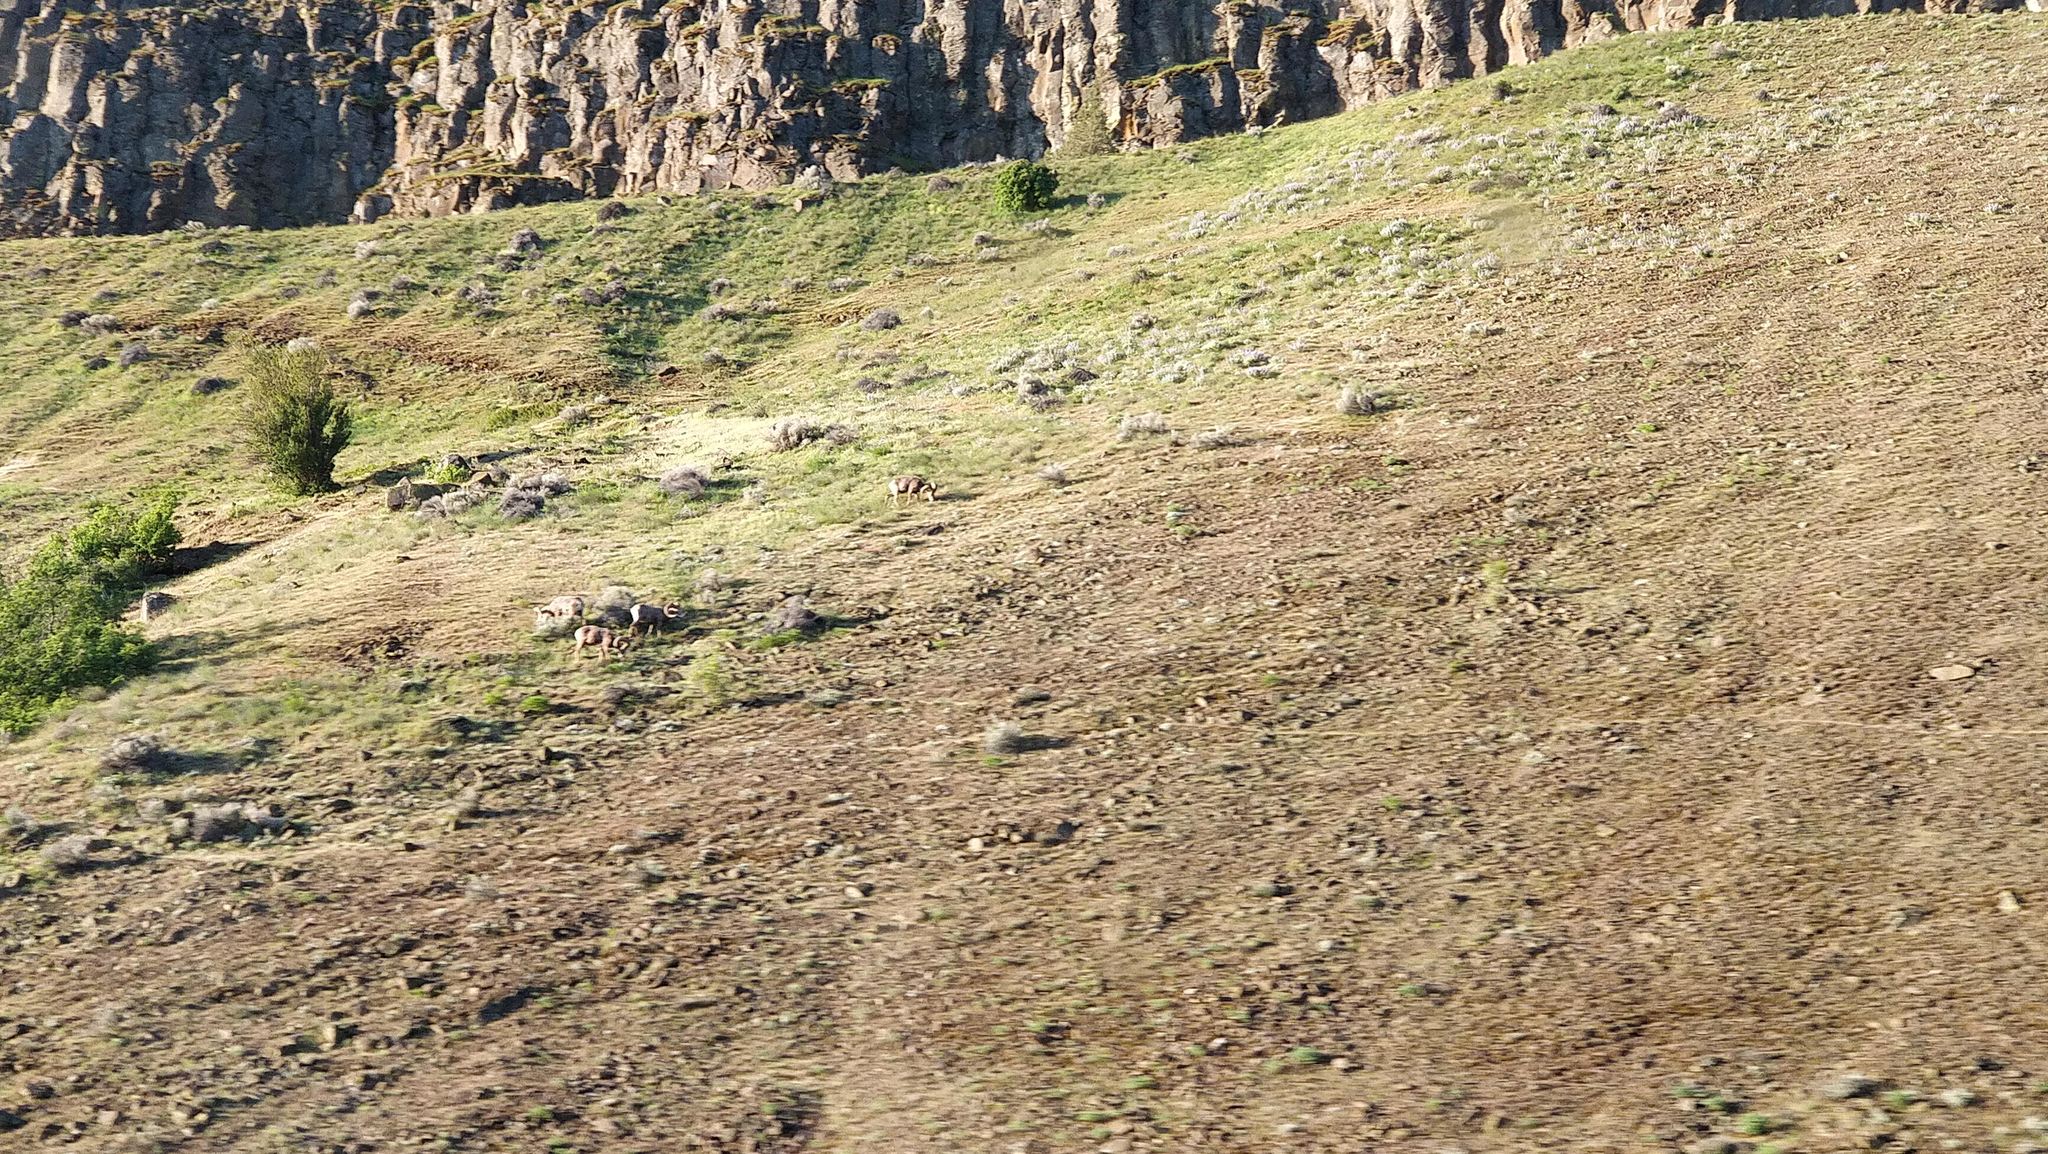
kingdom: Animalia
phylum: Chordata
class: Mammalia
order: Artiodactyla
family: Bovidae
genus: Ovis
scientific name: Ovis canadensis
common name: Bighorn sheep
